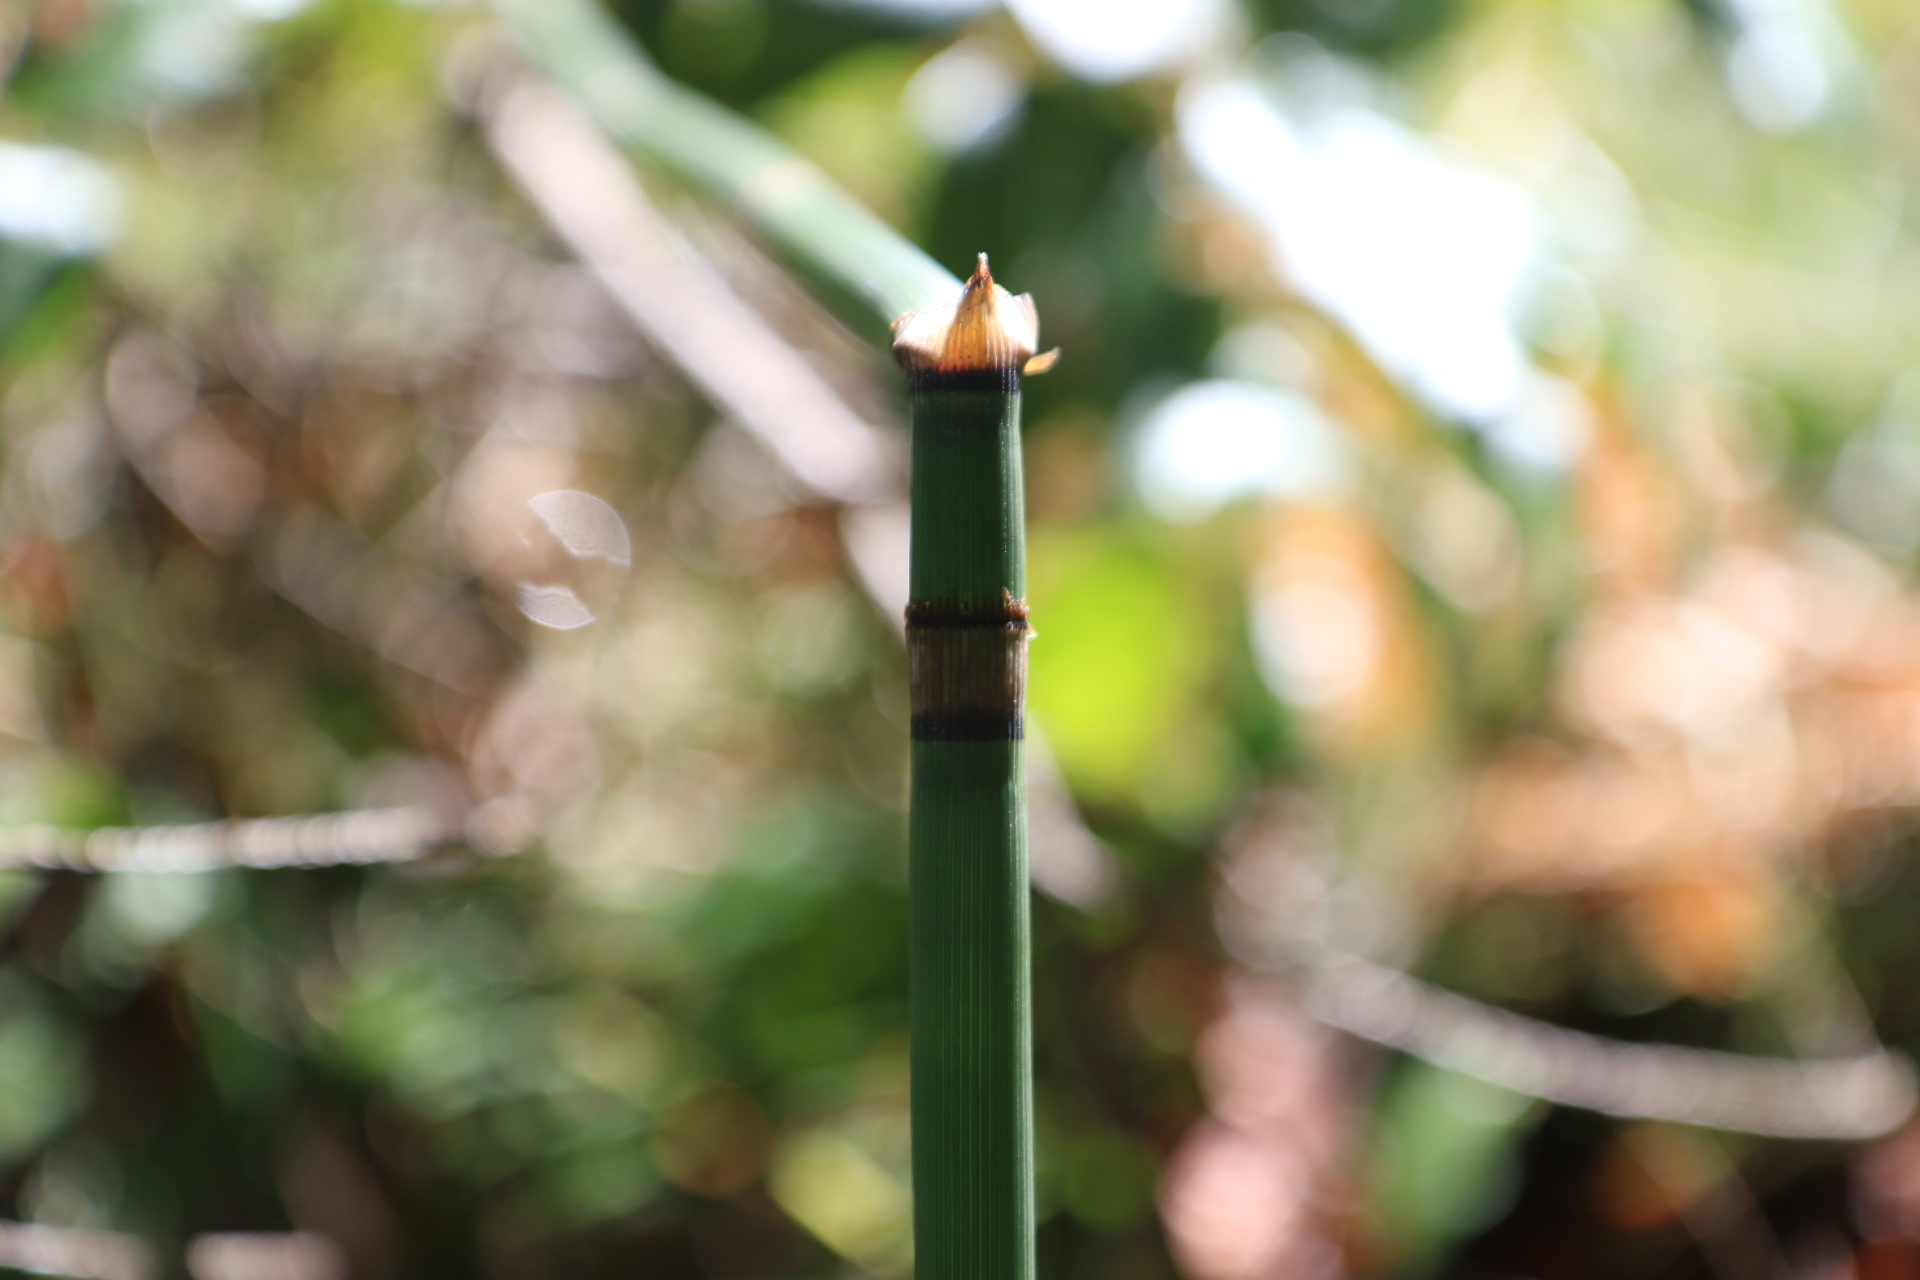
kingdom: Plantae
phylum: Tracheophyta
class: Polypodiopsida
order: Equisetales
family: Equisetaceae
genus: Equisetum
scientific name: Equisetum hyemale
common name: Rough horsetail
